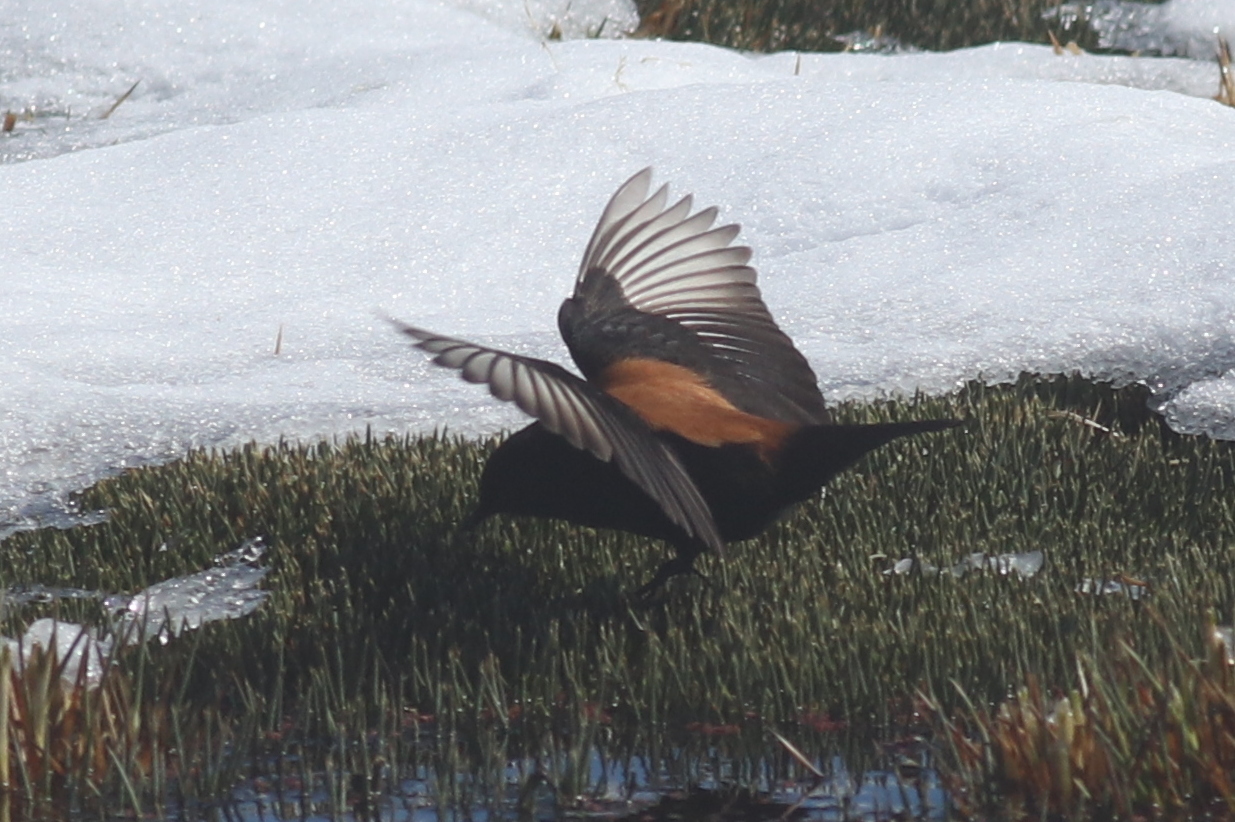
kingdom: Animalia
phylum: Chordata
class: Aves
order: Passeriformes
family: Tyrannidae
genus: Lessonia
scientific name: Lessonia oreas
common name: Andean negrito
